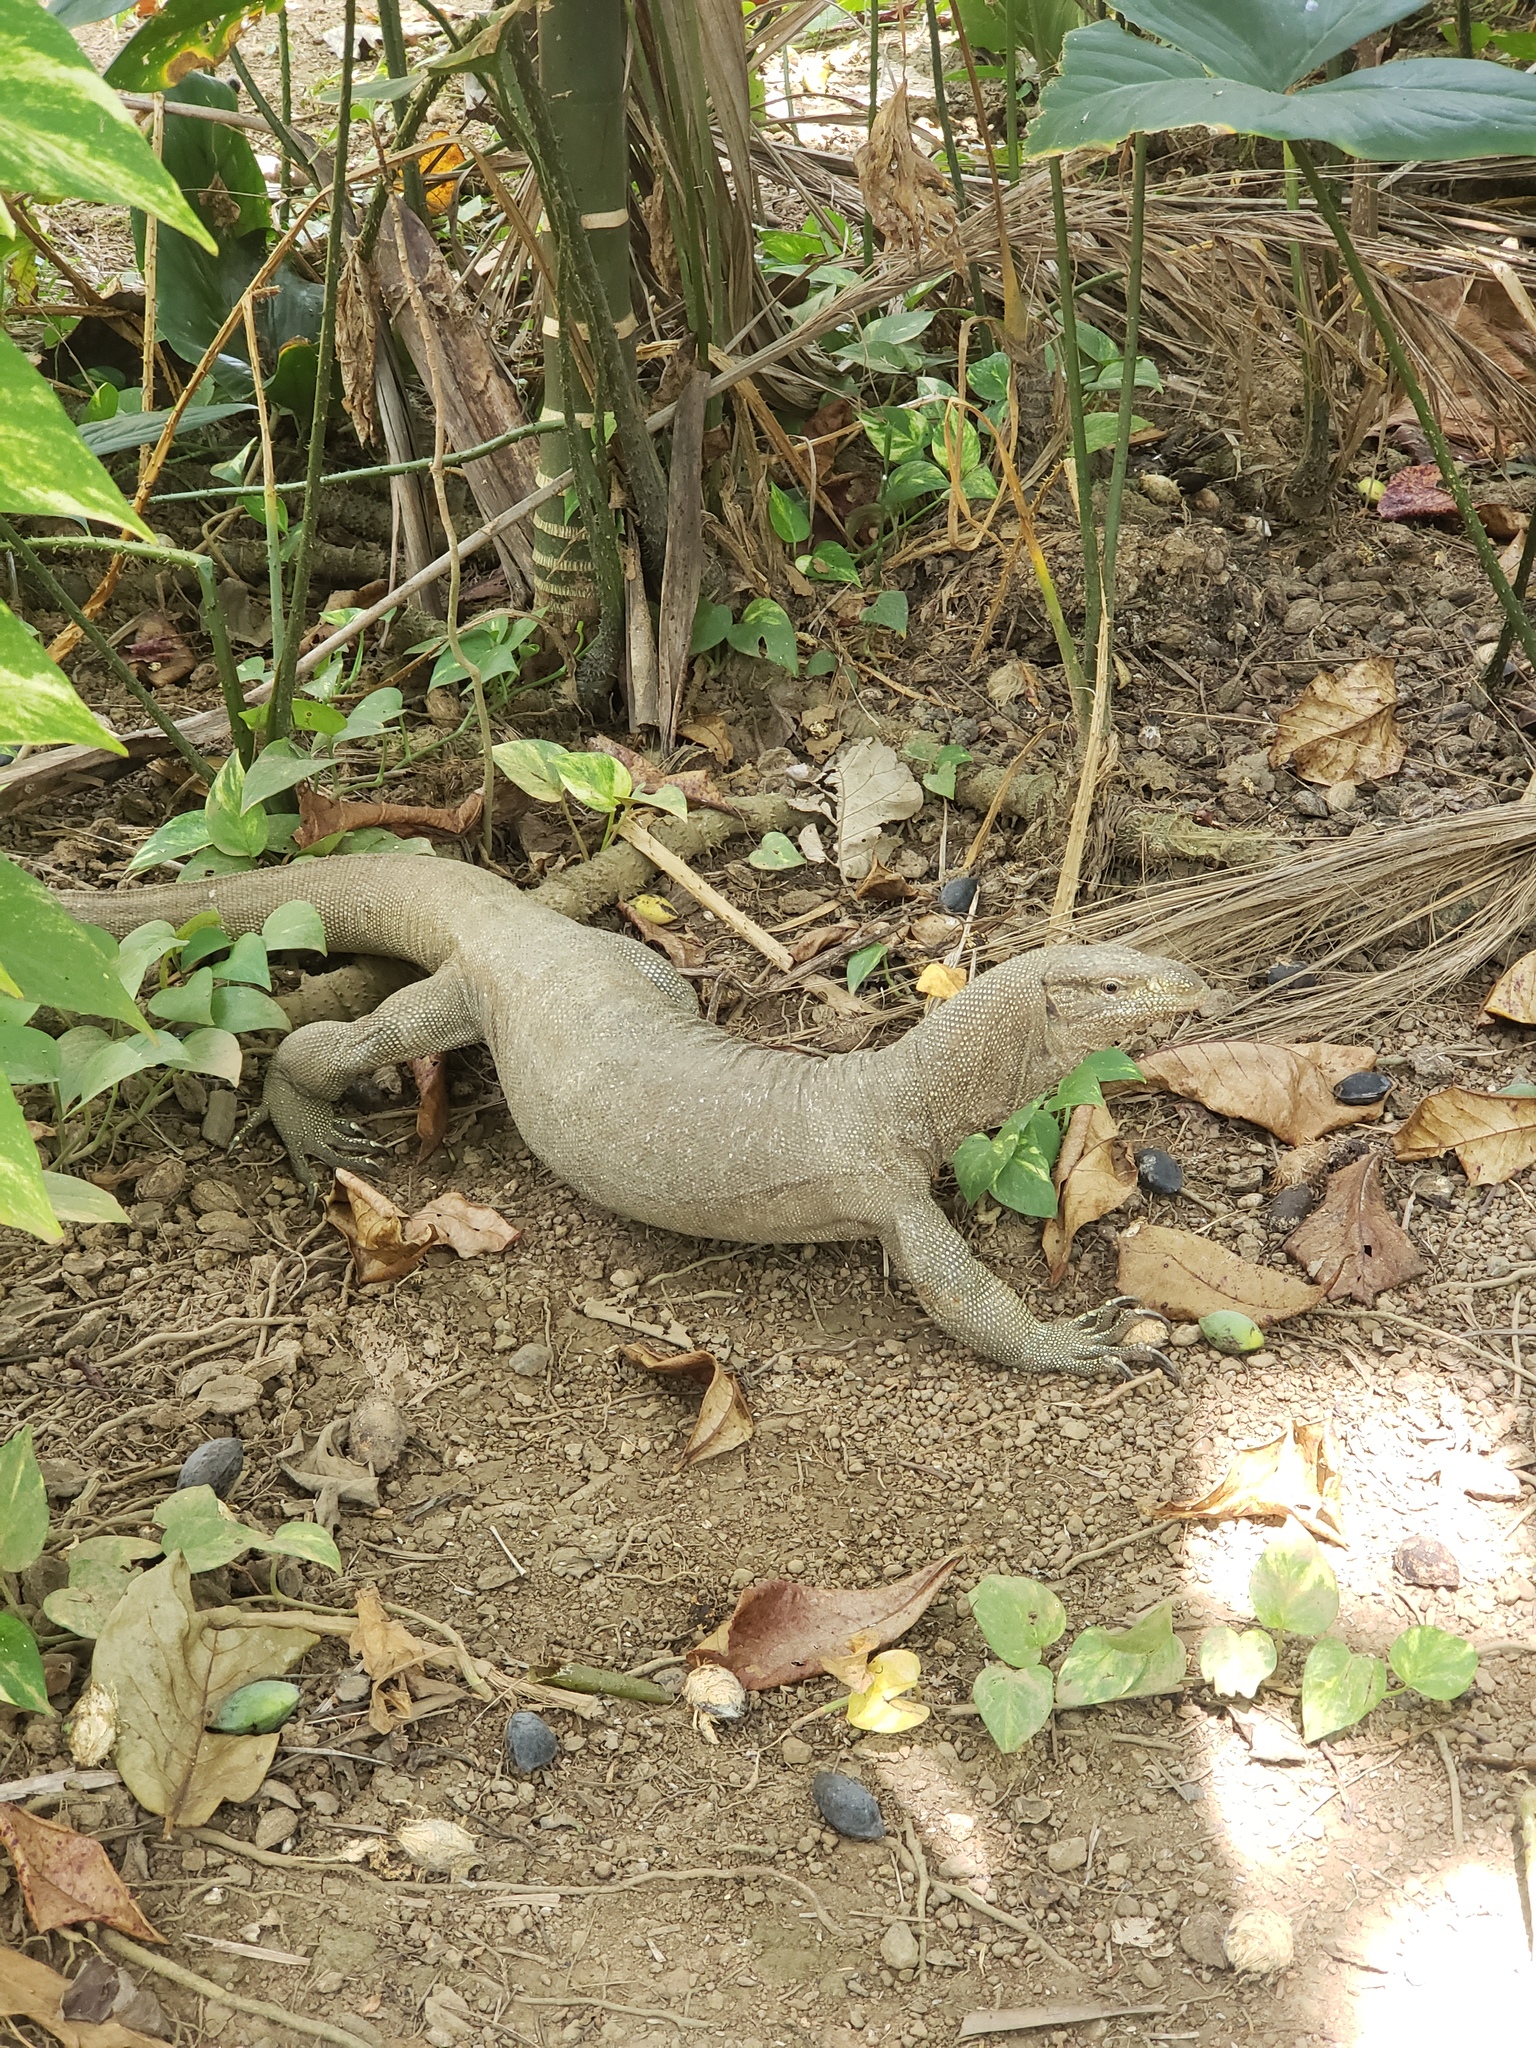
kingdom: Animalia
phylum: Chordata
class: Squamata
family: Varanidae
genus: Varanus
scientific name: Varanus bengalensis
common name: Bengal monitor
